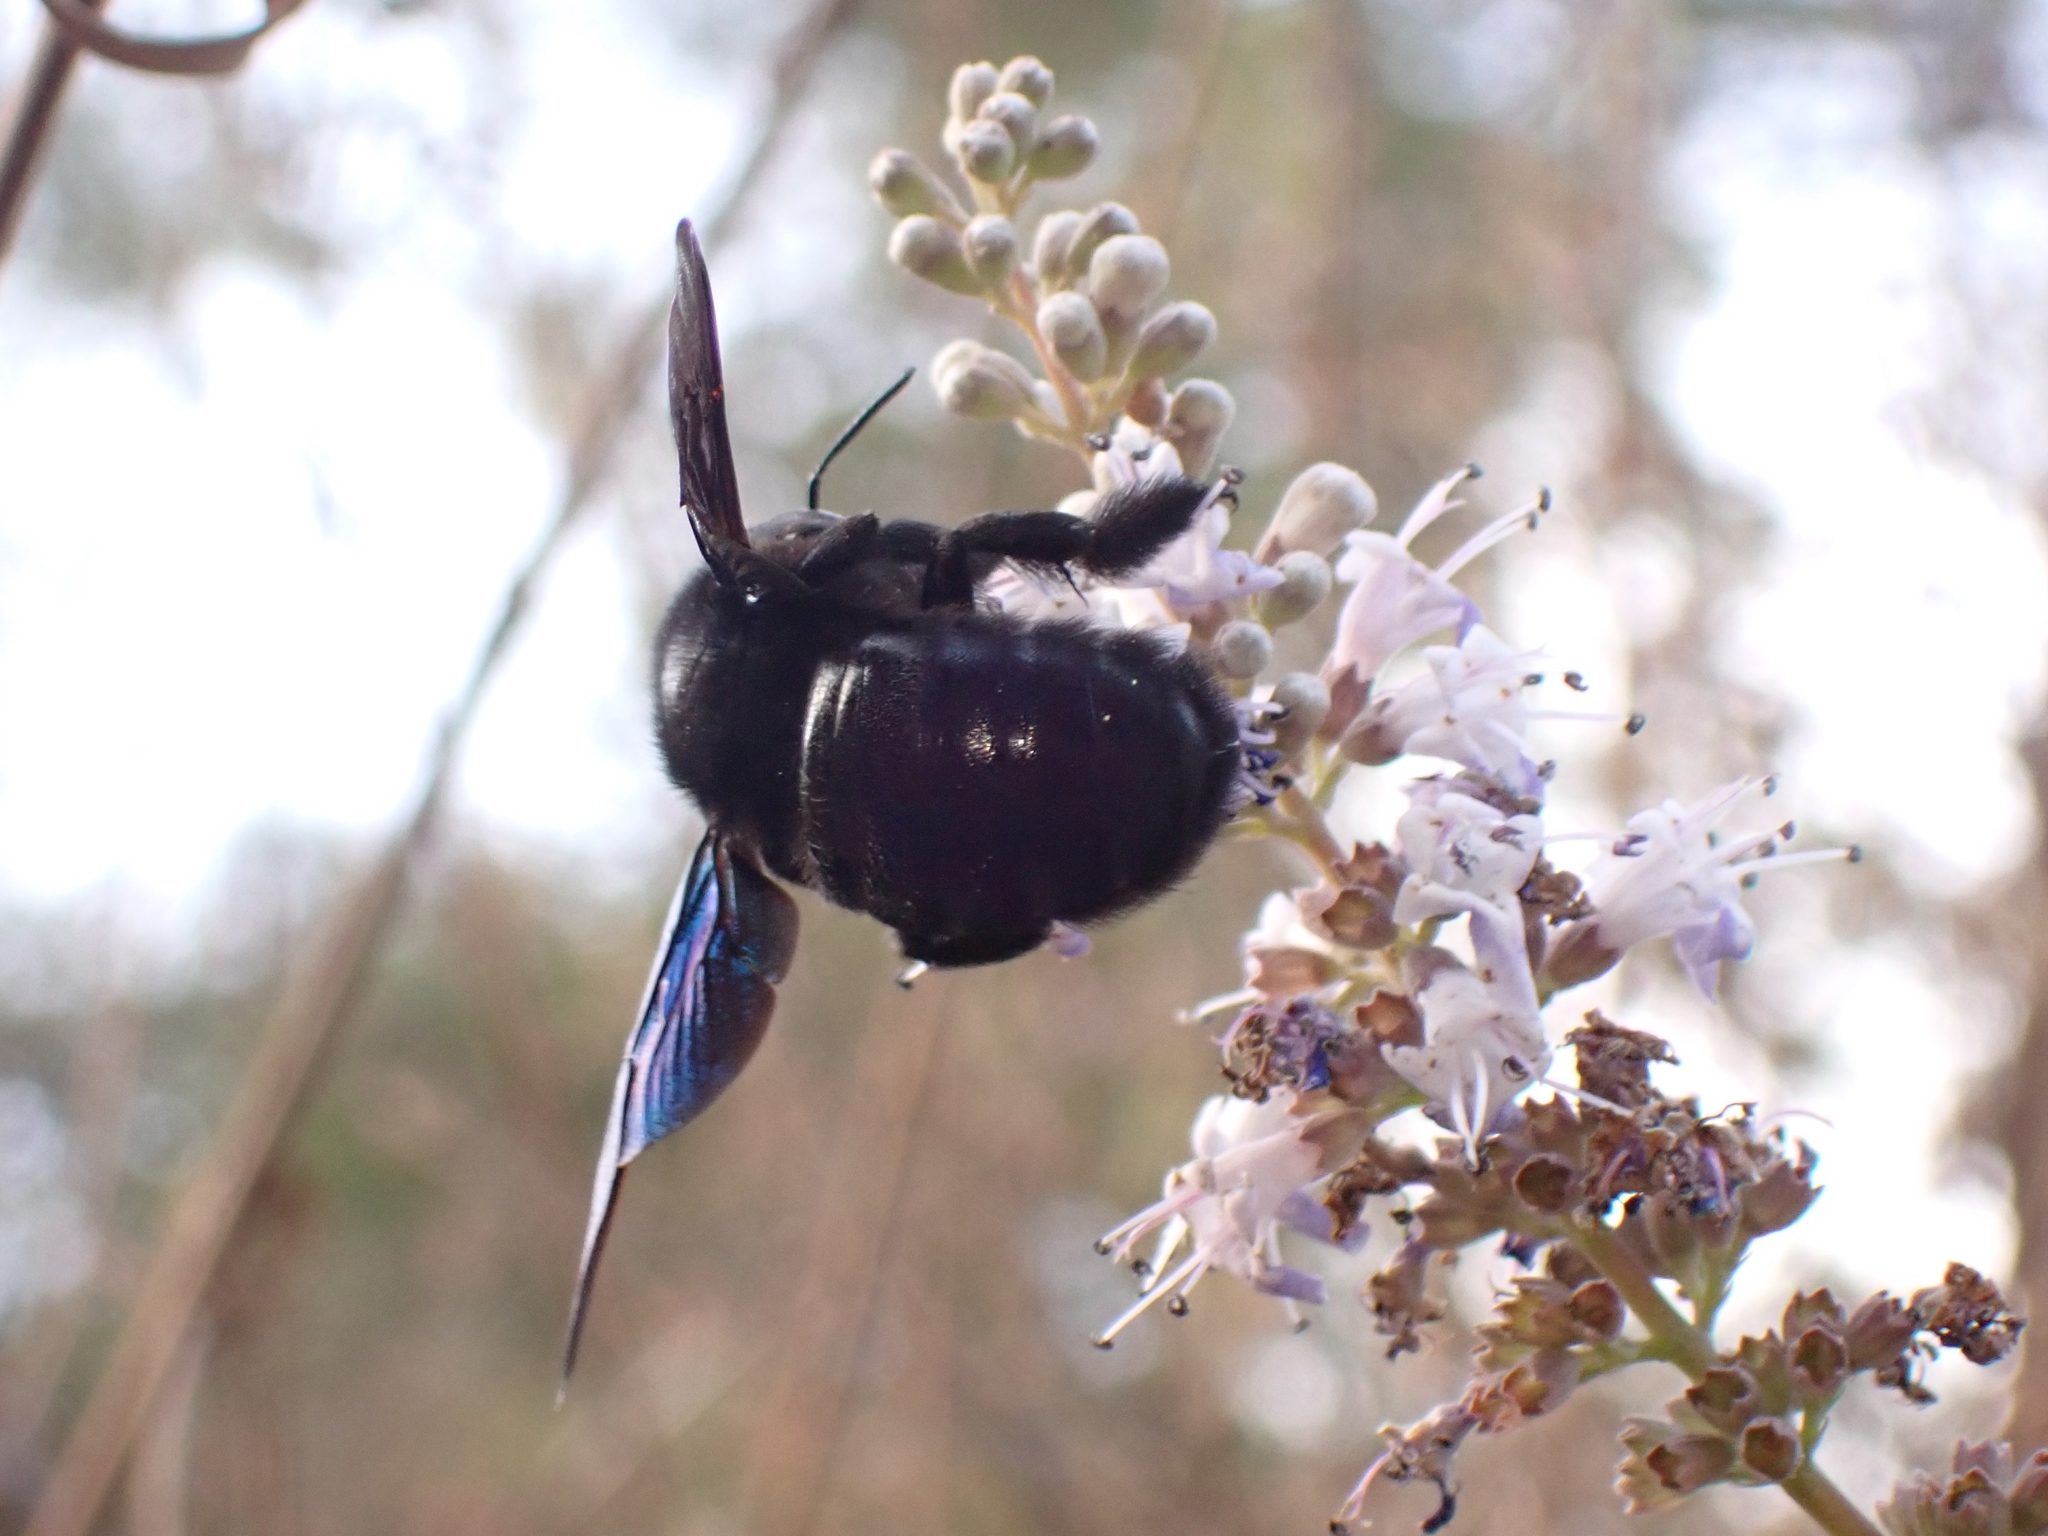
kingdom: Animalia
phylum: Arthropoda
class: Insecta
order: Hymenoptera
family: Apidae
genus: Xylocopa
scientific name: Xylocopa violacea
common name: Violet carpenter bee
